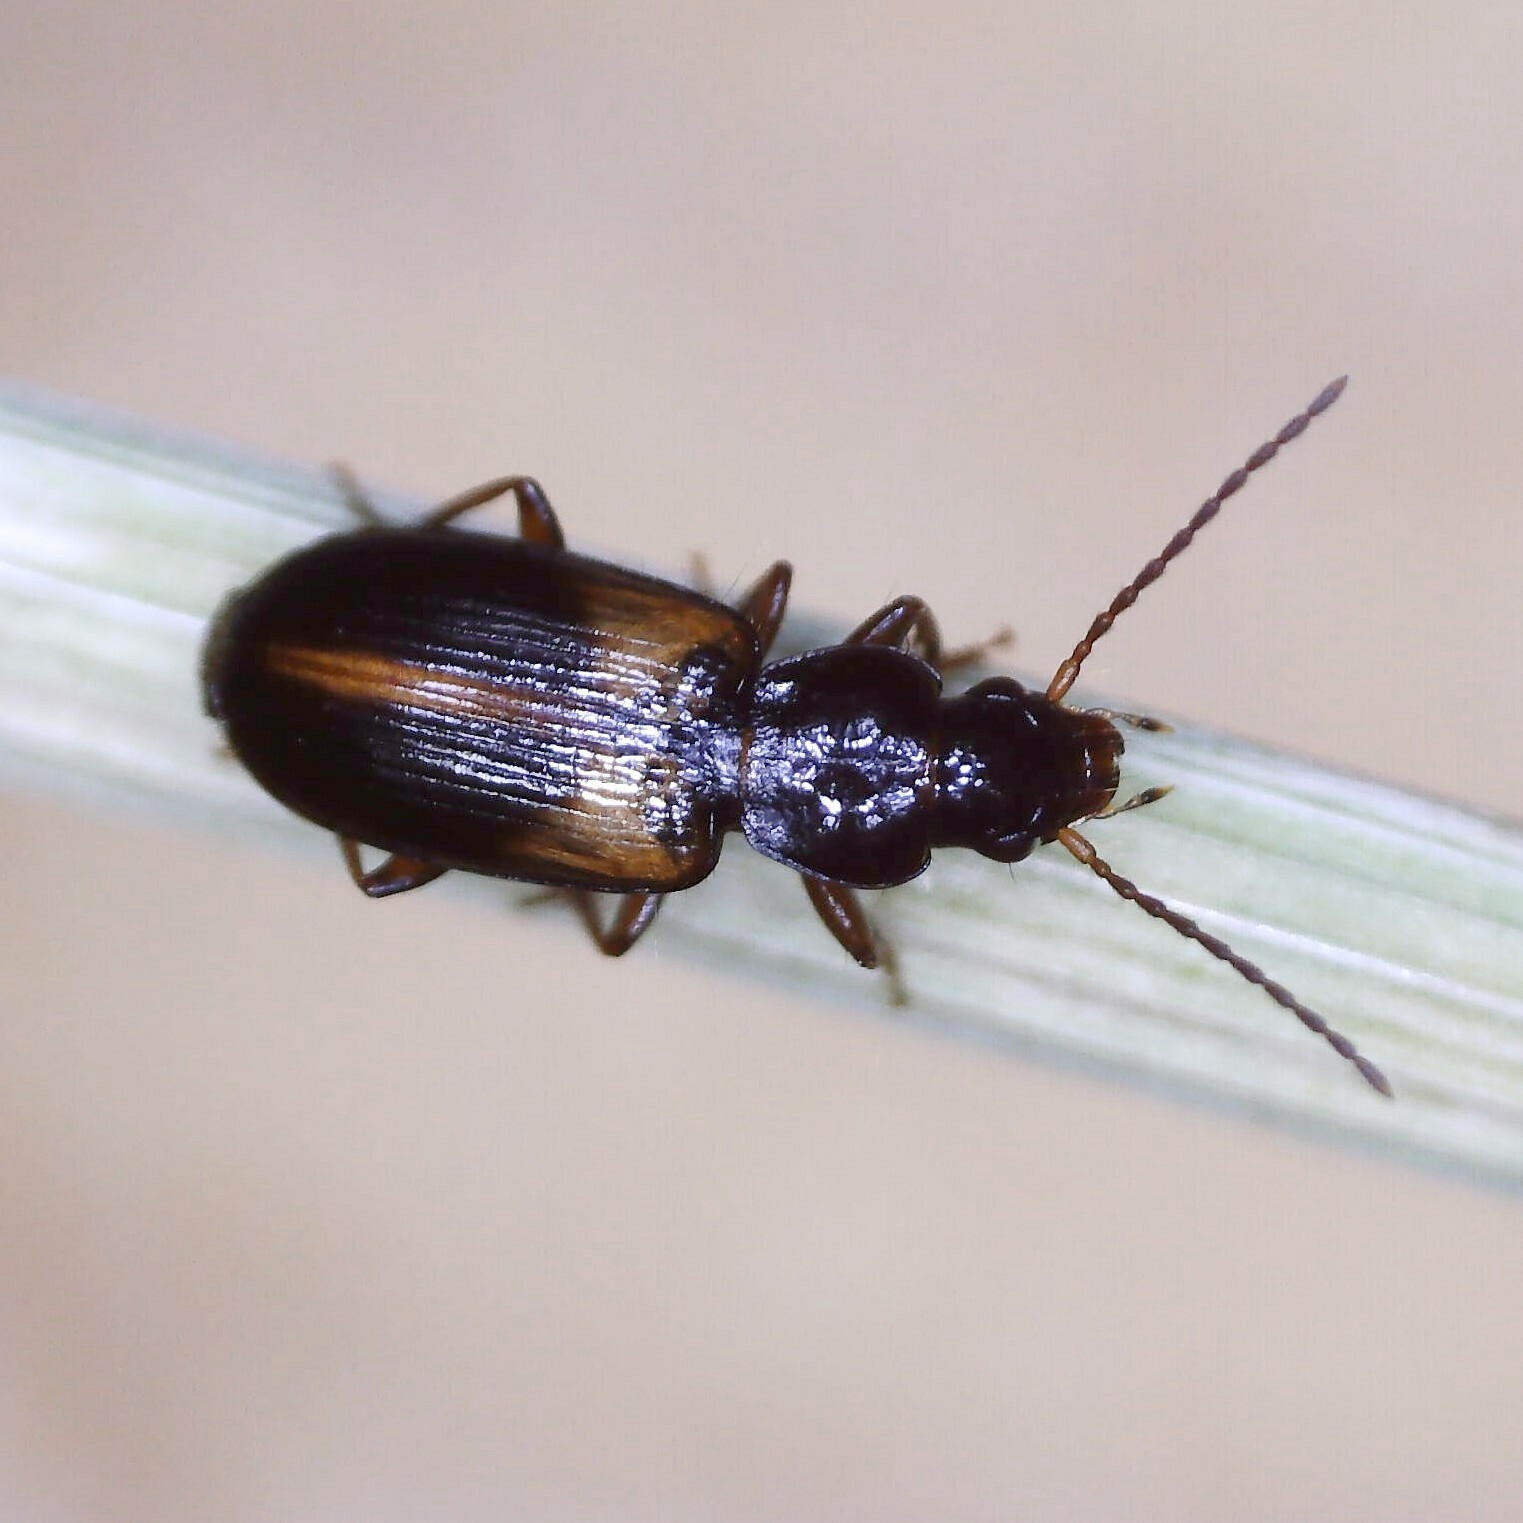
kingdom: Animalia
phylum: Arthropoda
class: Insecta
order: Coleoptera
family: Carabidae
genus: Acupalpus
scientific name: Acupalpus meridianus
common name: Midday harp ground beetle
